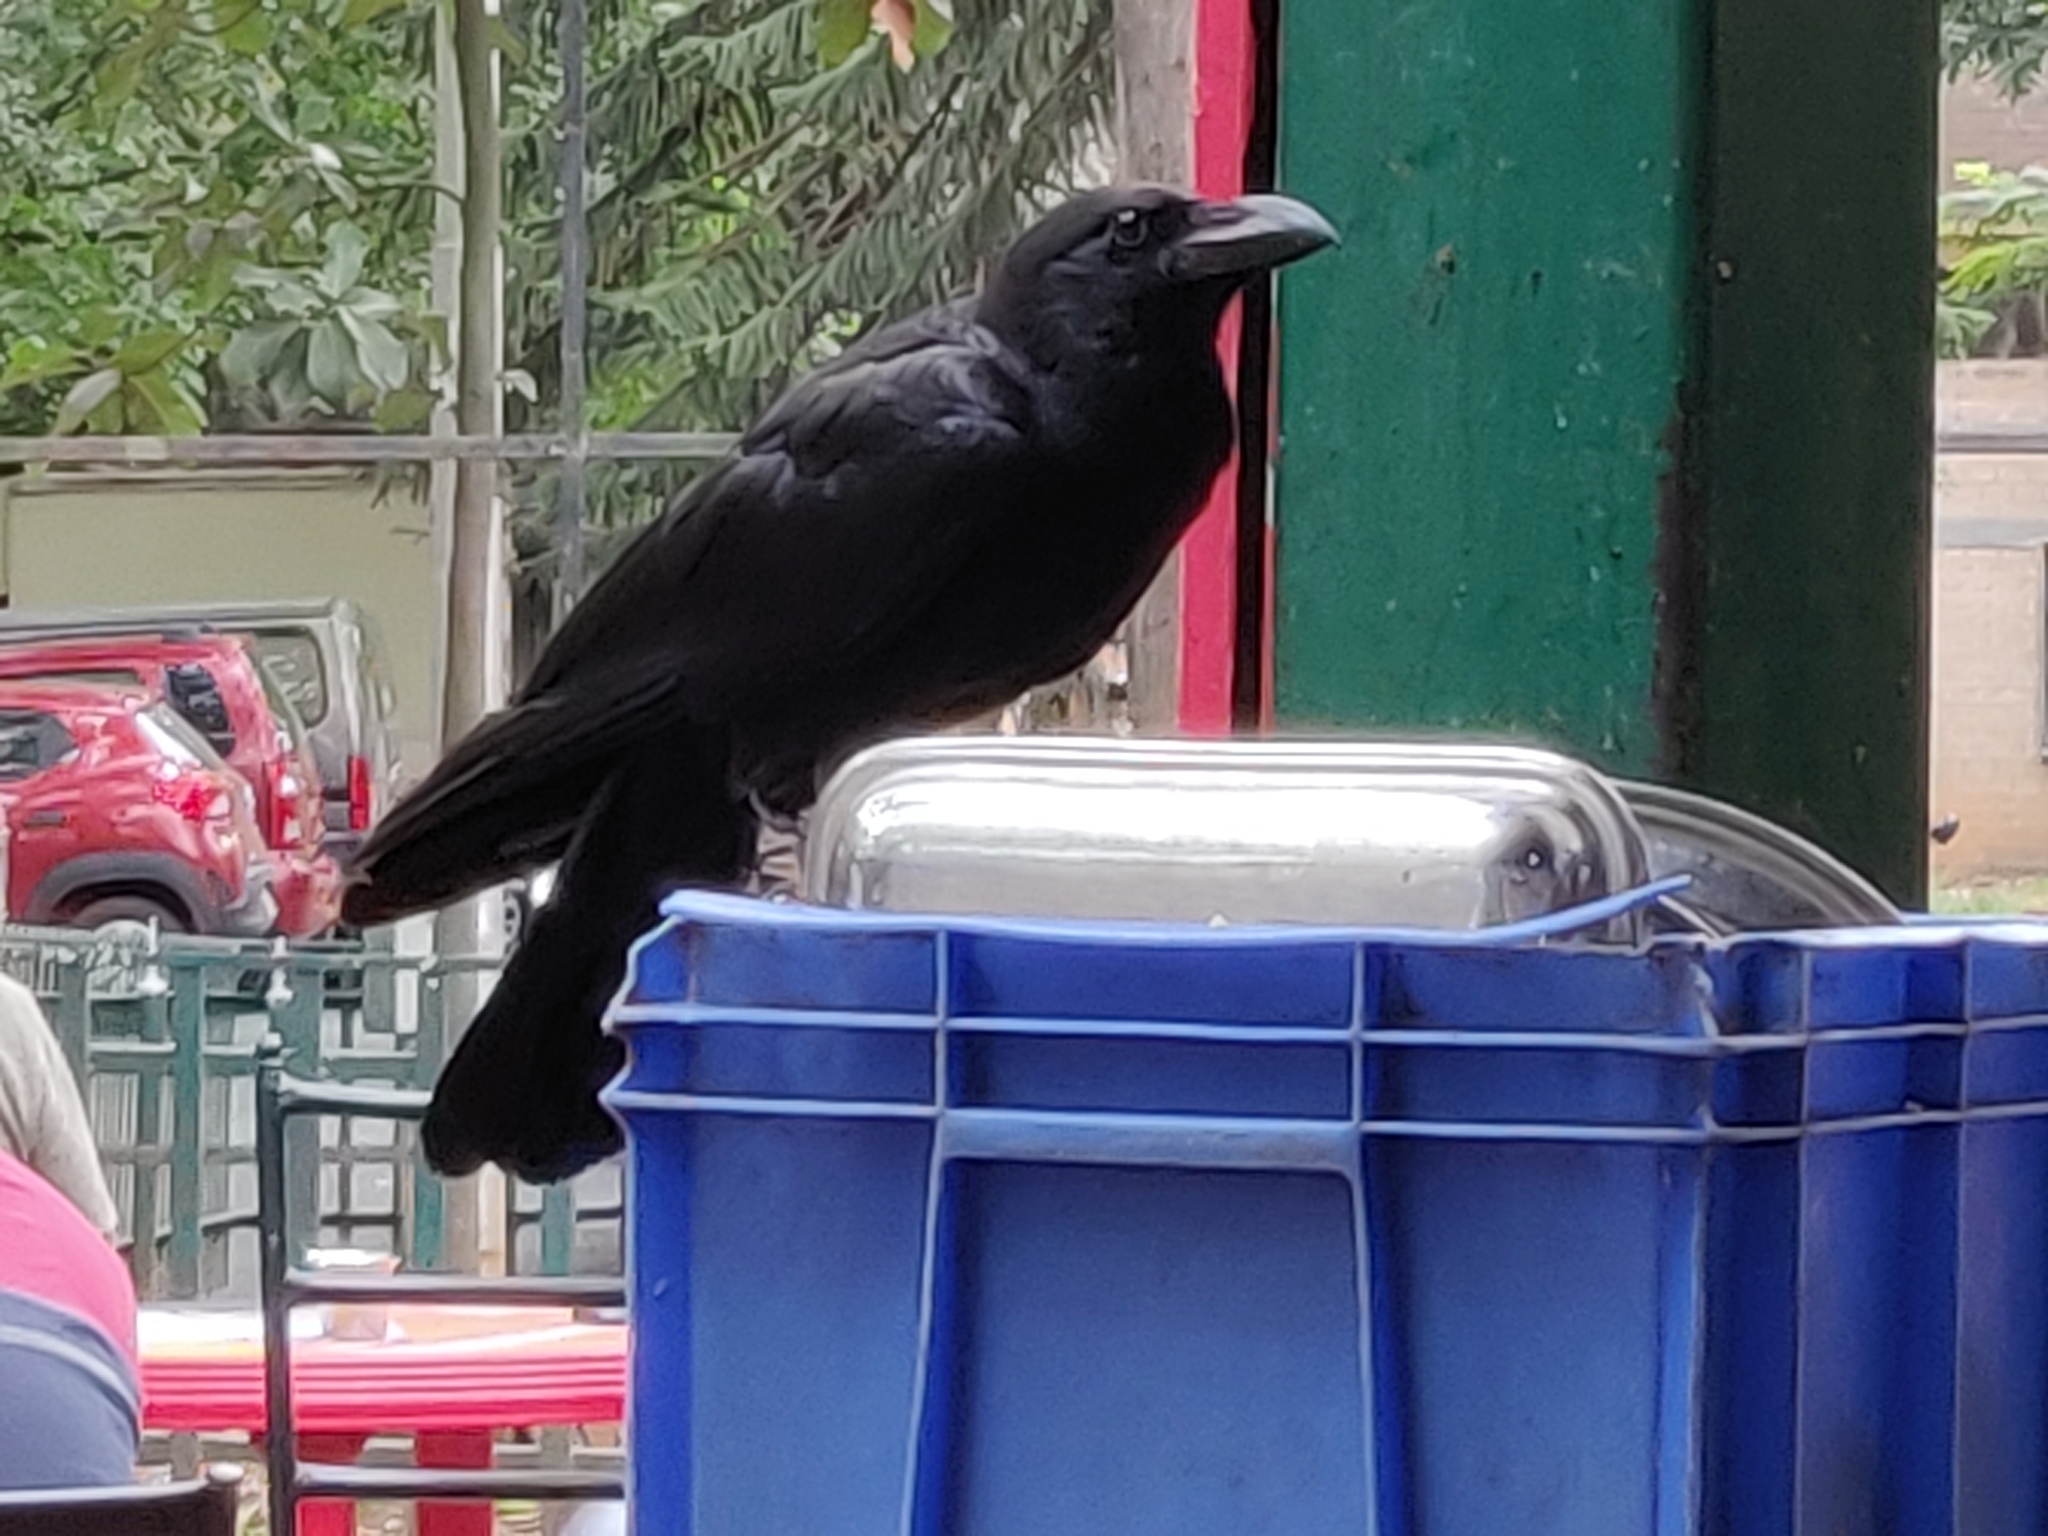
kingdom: Animalia
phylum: Chordata
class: Aves
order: Passeriformes
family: Corvidae
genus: Corvus
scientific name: Corvus macrorhynchos
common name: Large-billed crow
